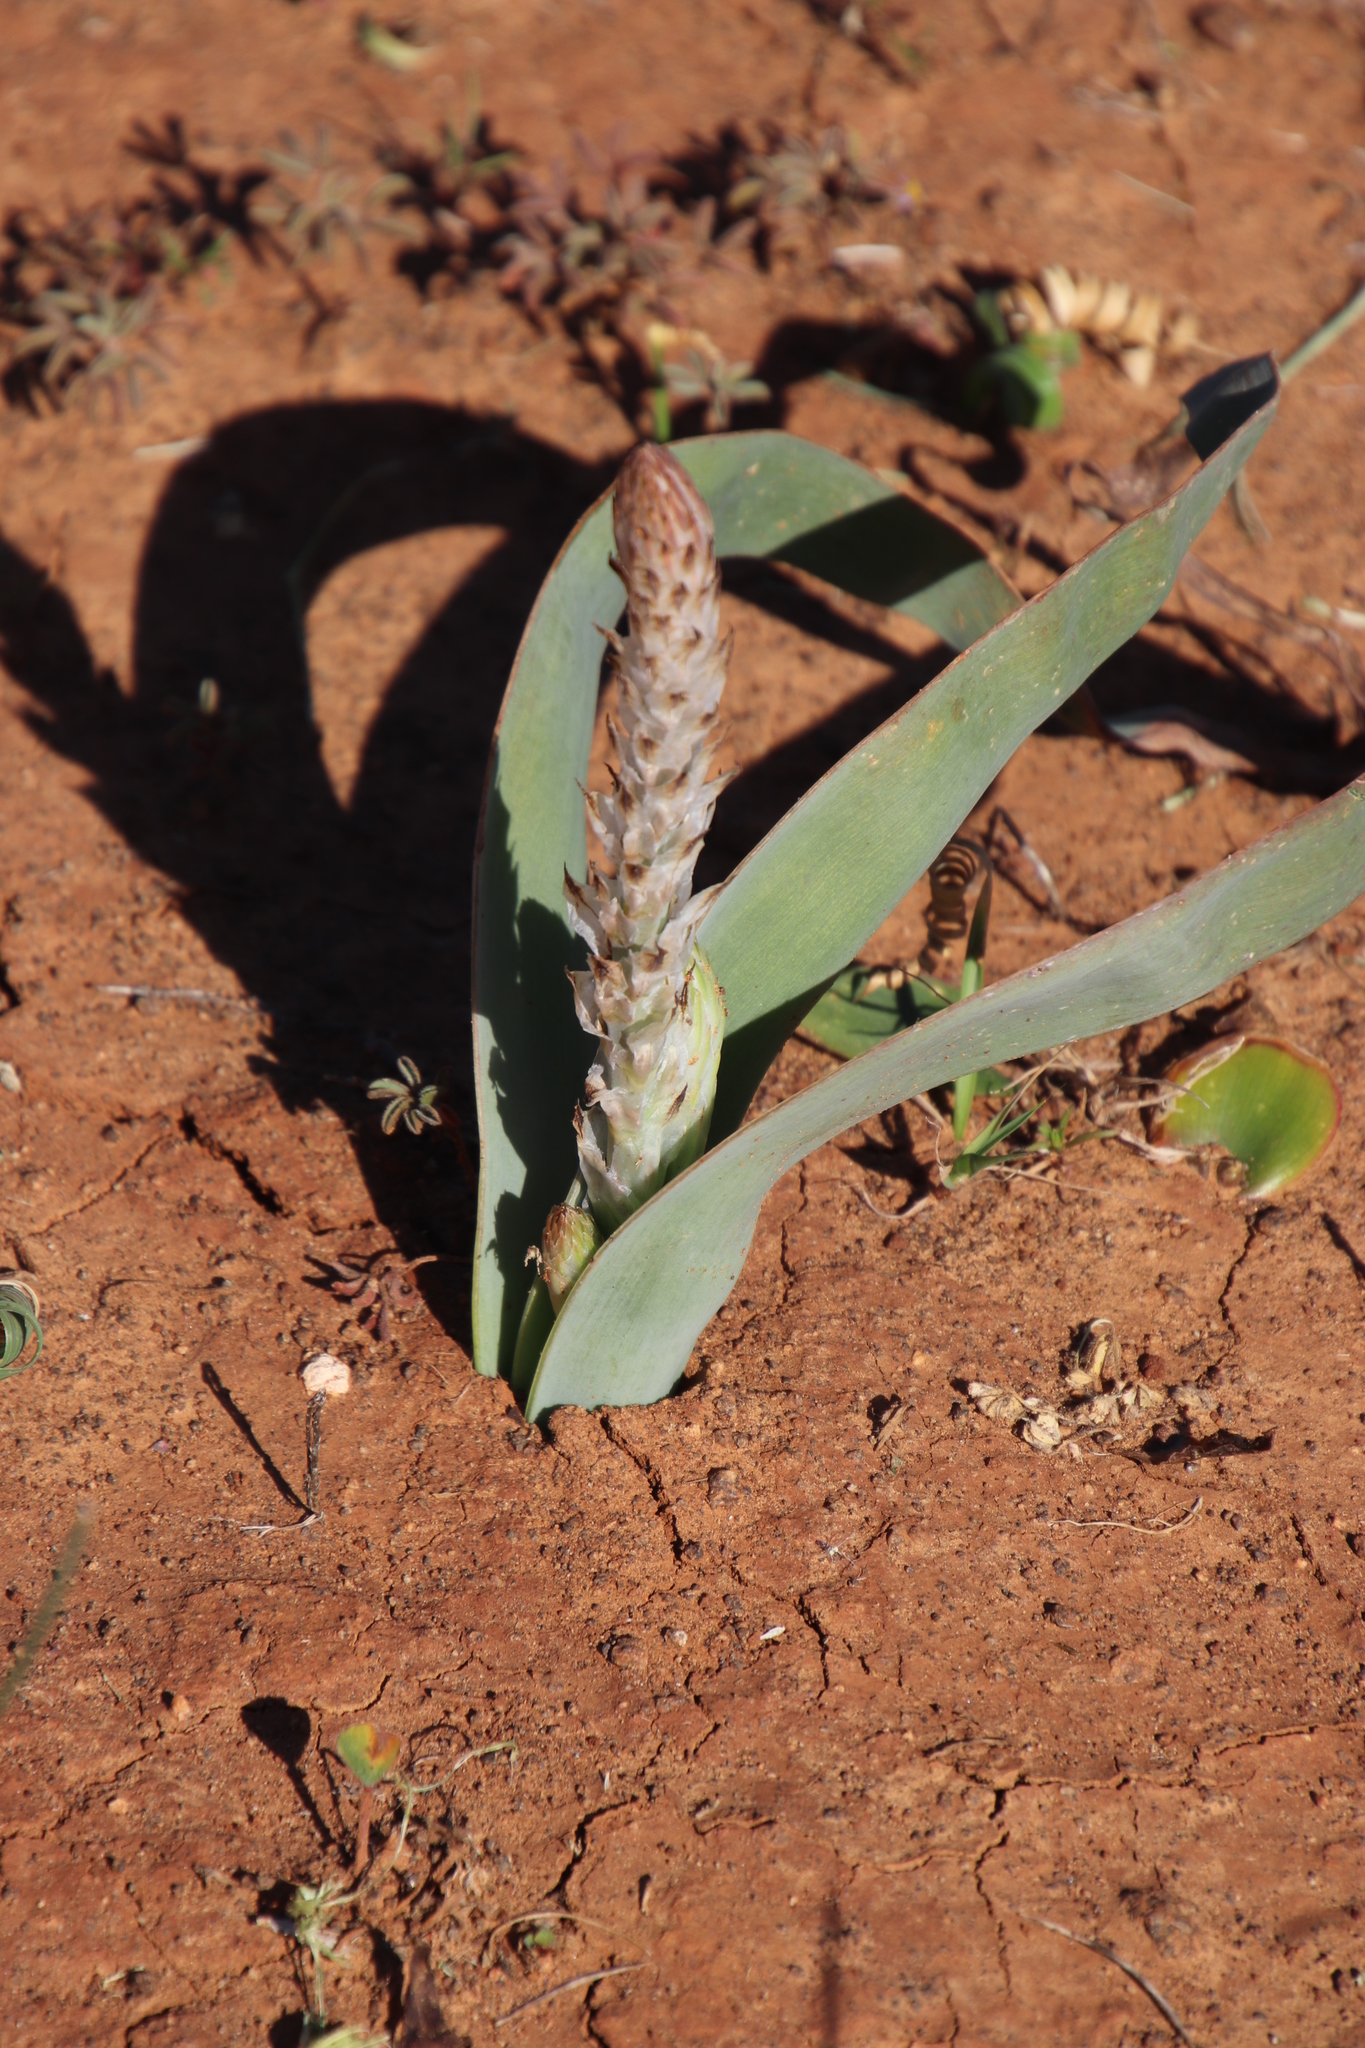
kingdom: Plantae
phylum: Tracheophyta
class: Liliopsida
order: Asparagales
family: Asphodelaceae
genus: Trachyandra
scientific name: Trachyandra falcata
